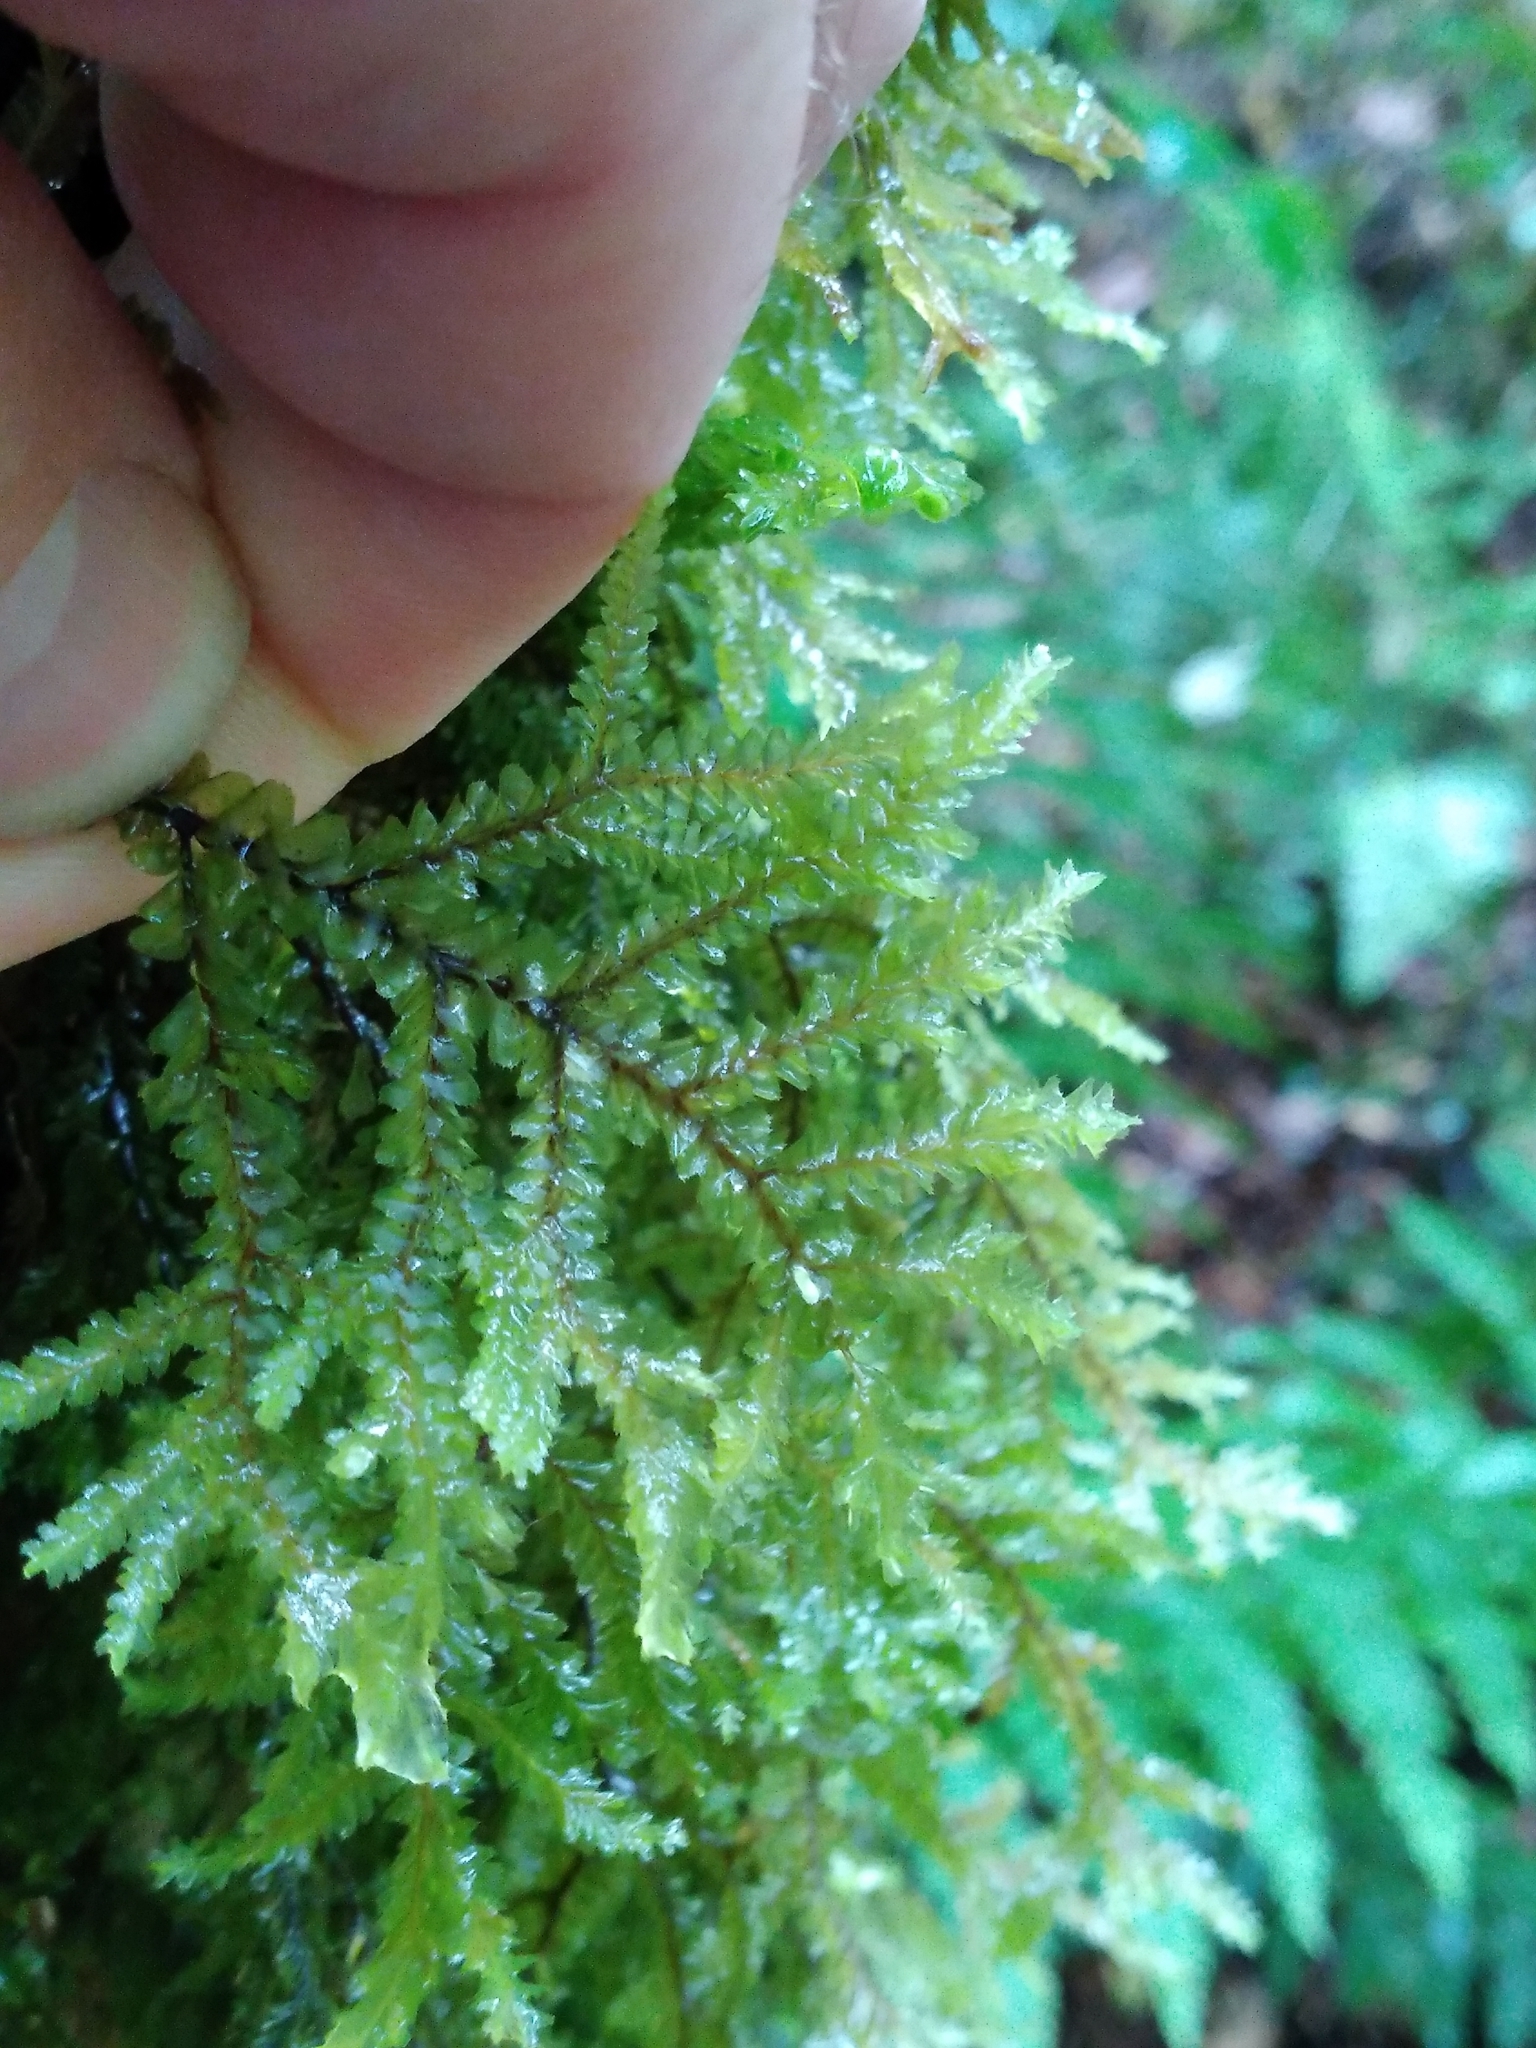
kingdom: Plantae
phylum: Marchantiophyta
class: Jungermanniopsida
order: Jungermanniales
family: Plagiochilaceae
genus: Plagiochila
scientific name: Plagiochila stephensoniana
